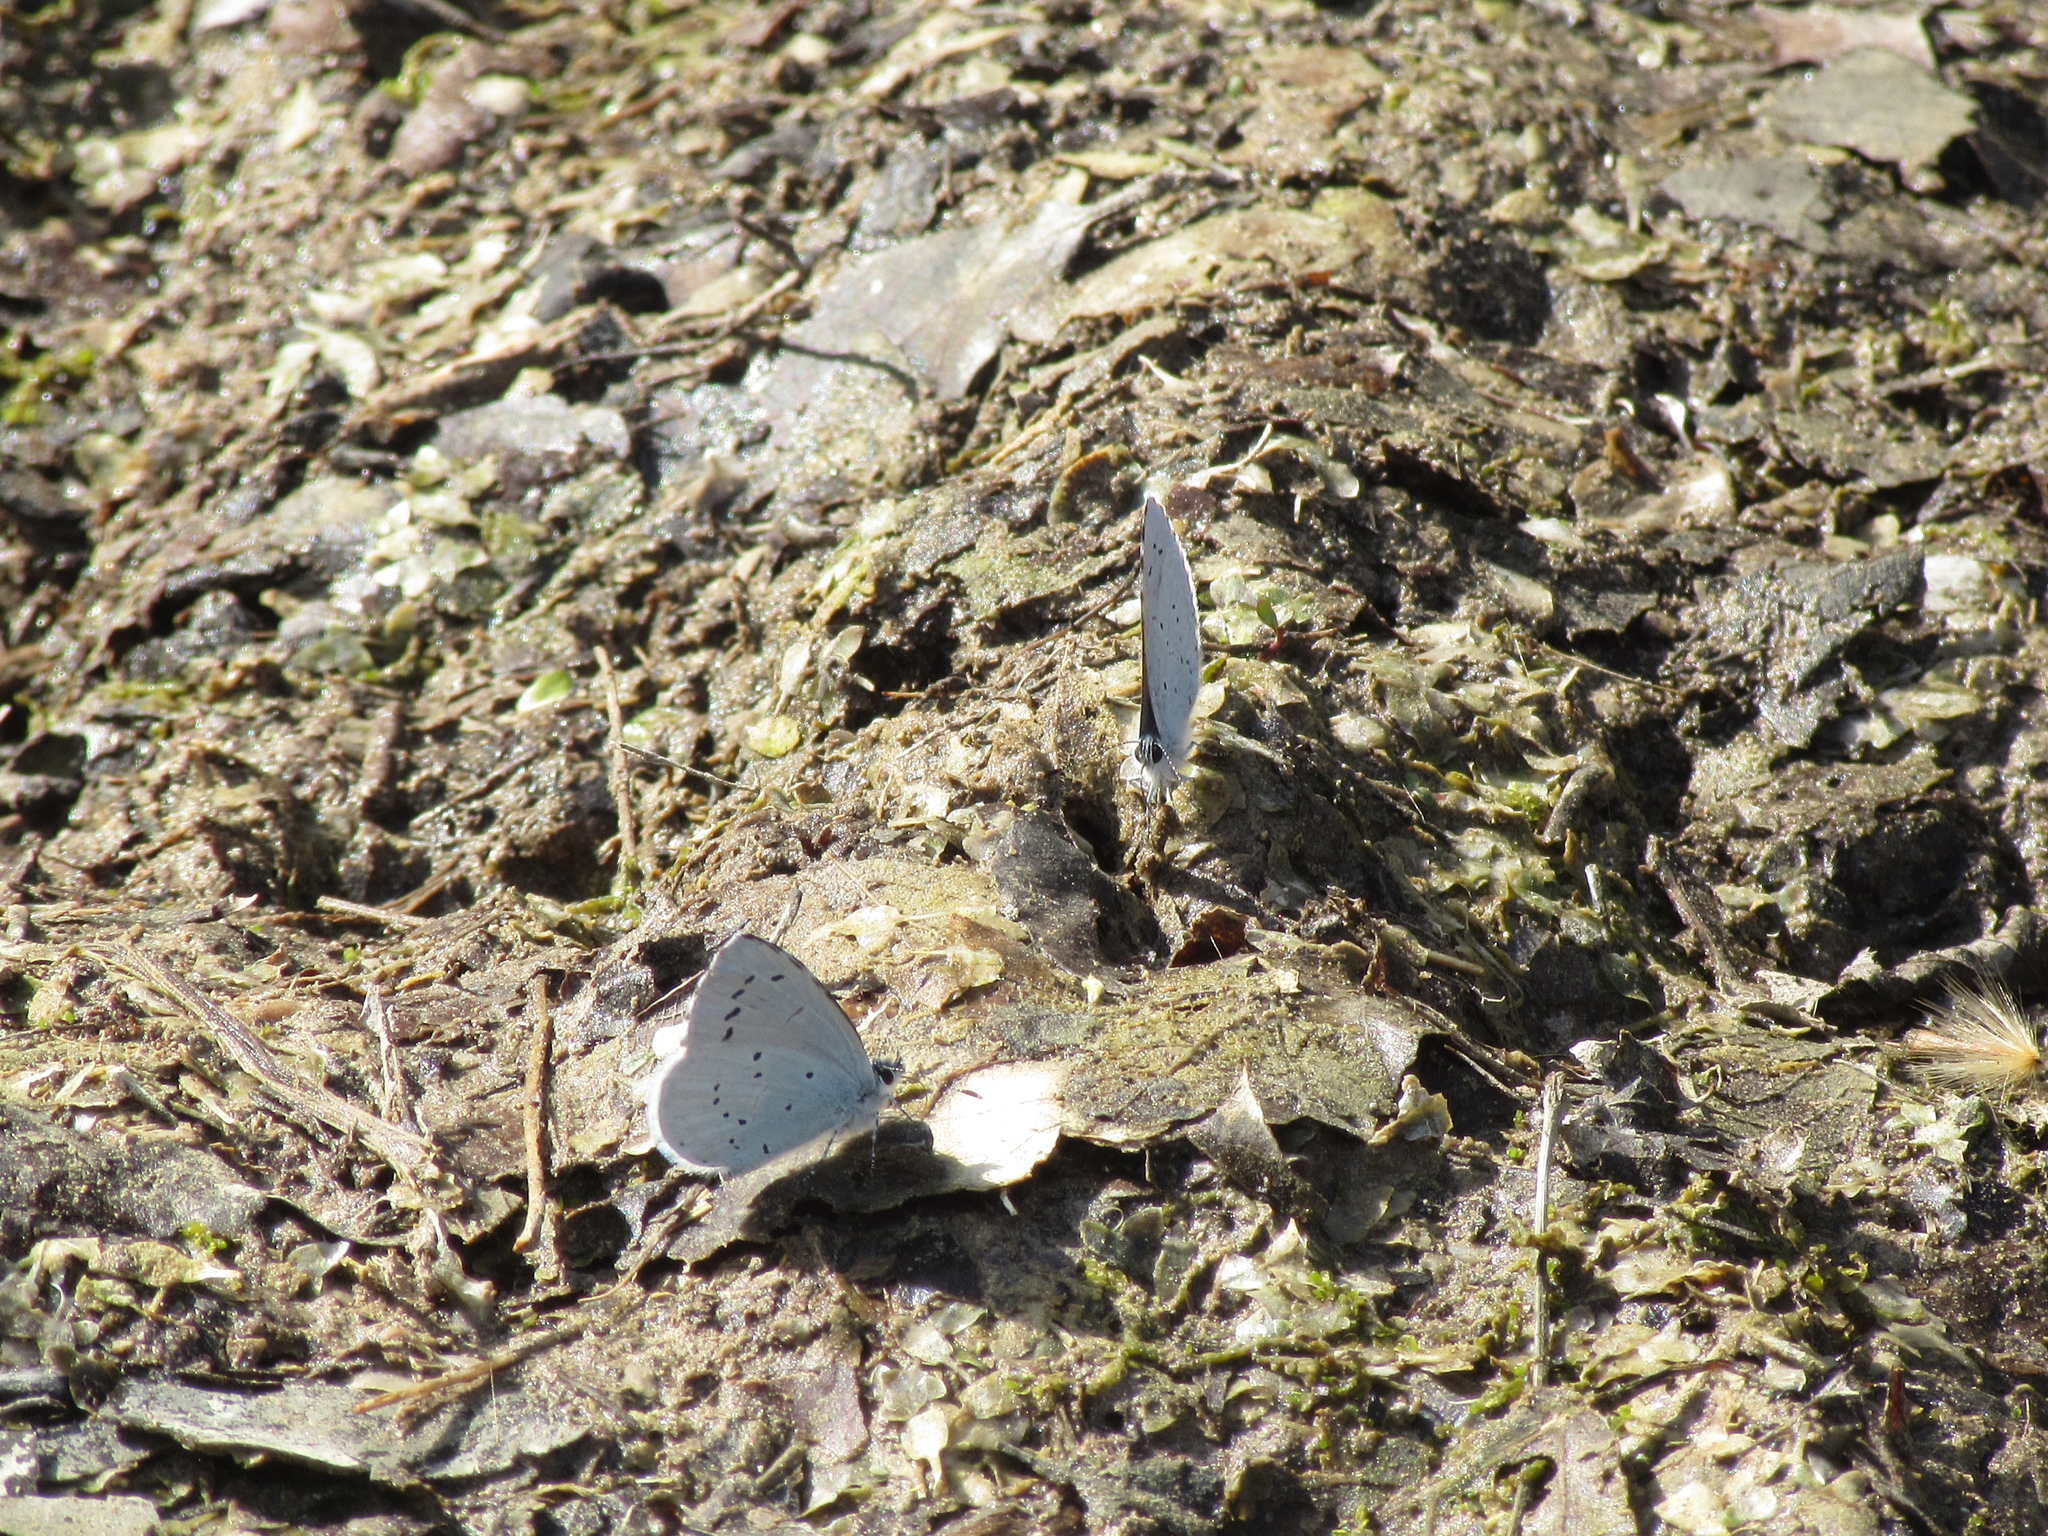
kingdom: Animalia
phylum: Arthropoda
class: Insecta
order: Lepidoptera
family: Lycaenidae
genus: Celastrina
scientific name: Celastrina argiolus
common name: Holly blue
